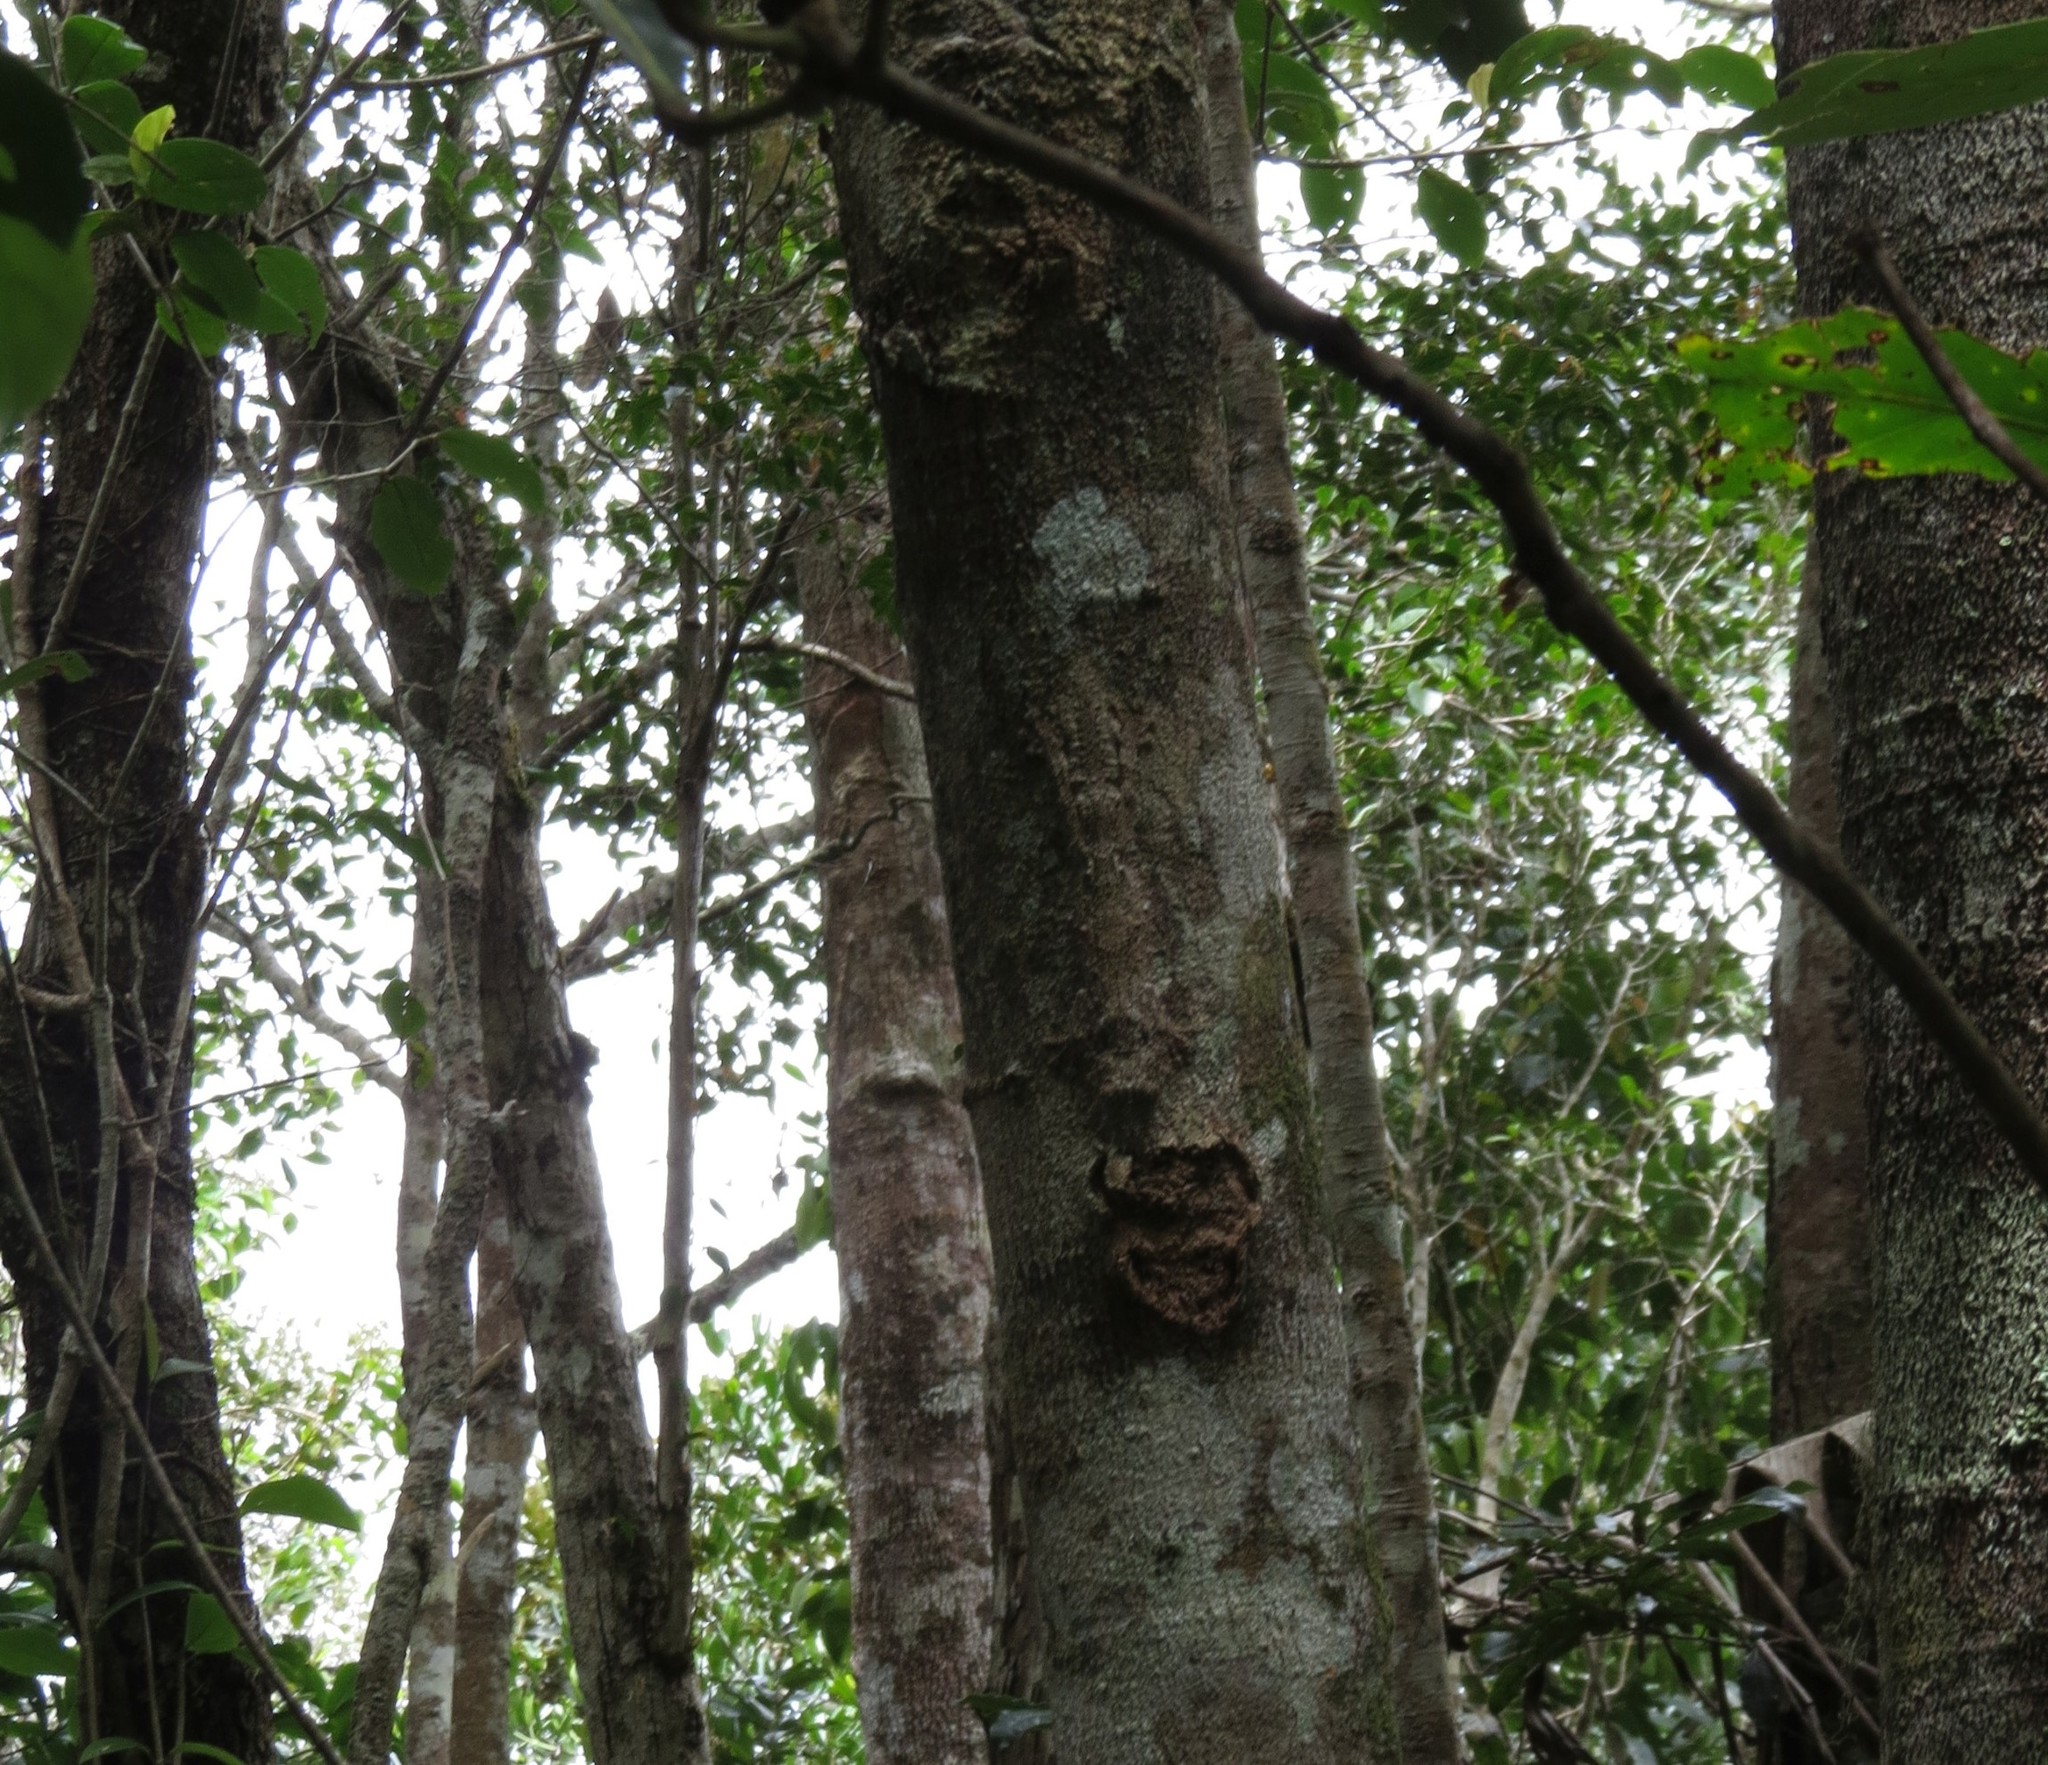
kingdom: Animalia
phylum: Chordata
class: Squamata
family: Gekkonidae
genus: Uroplatus
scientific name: Uroplatus sikorae
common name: Southern flat-tail gecko
